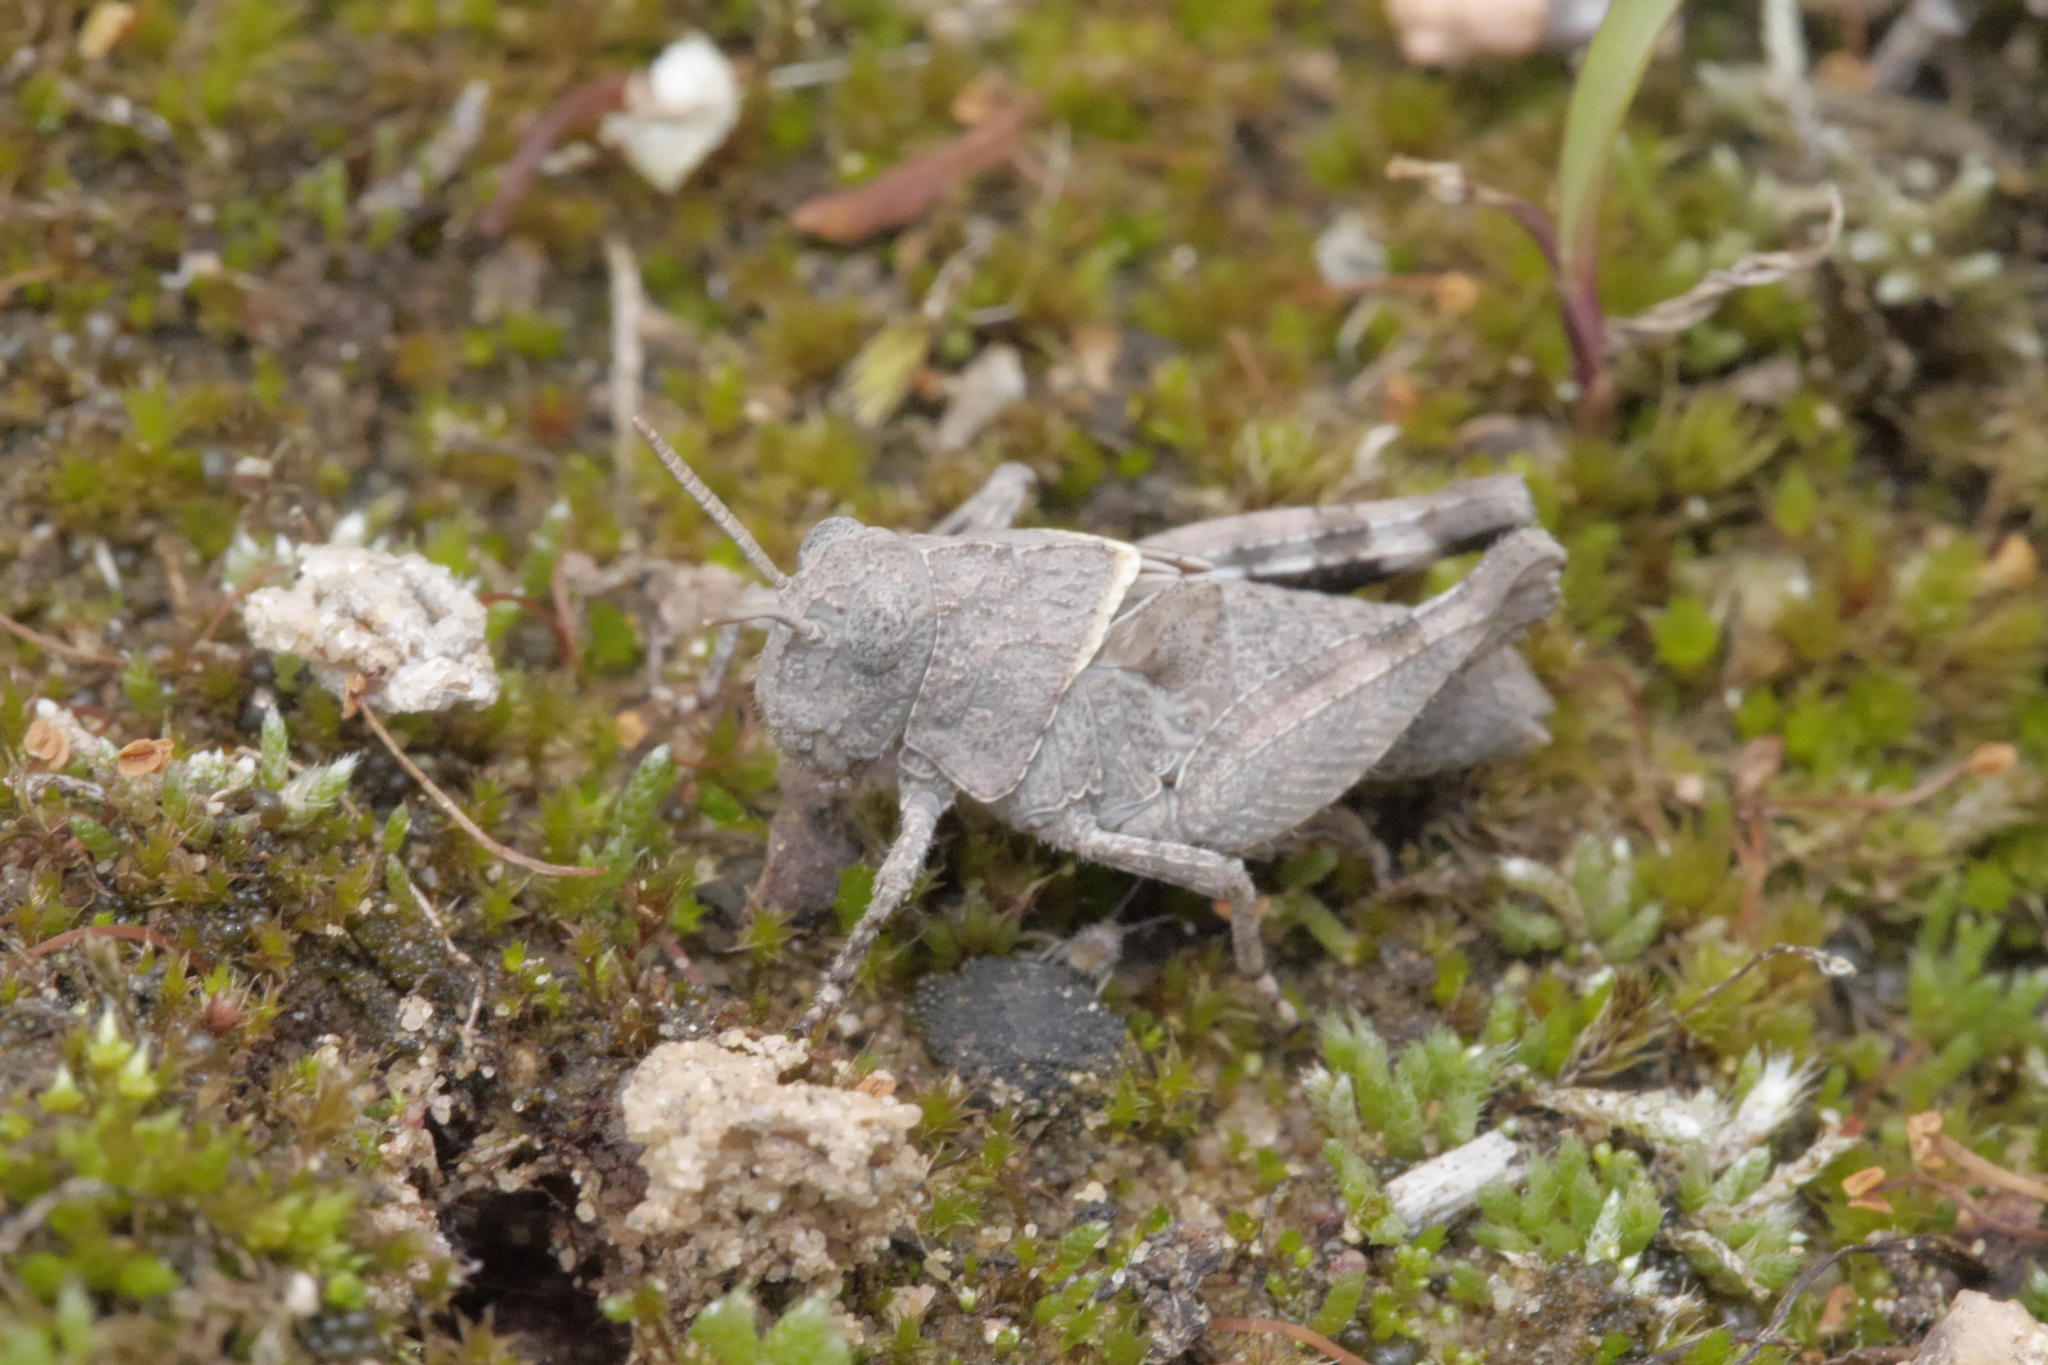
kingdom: Animalia
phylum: Arthropoda
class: Insecta
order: Orthoptera
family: Acrididae
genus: Oedipoda
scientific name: Oedipoda caerulescens
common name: Blue-winged grasshopper
